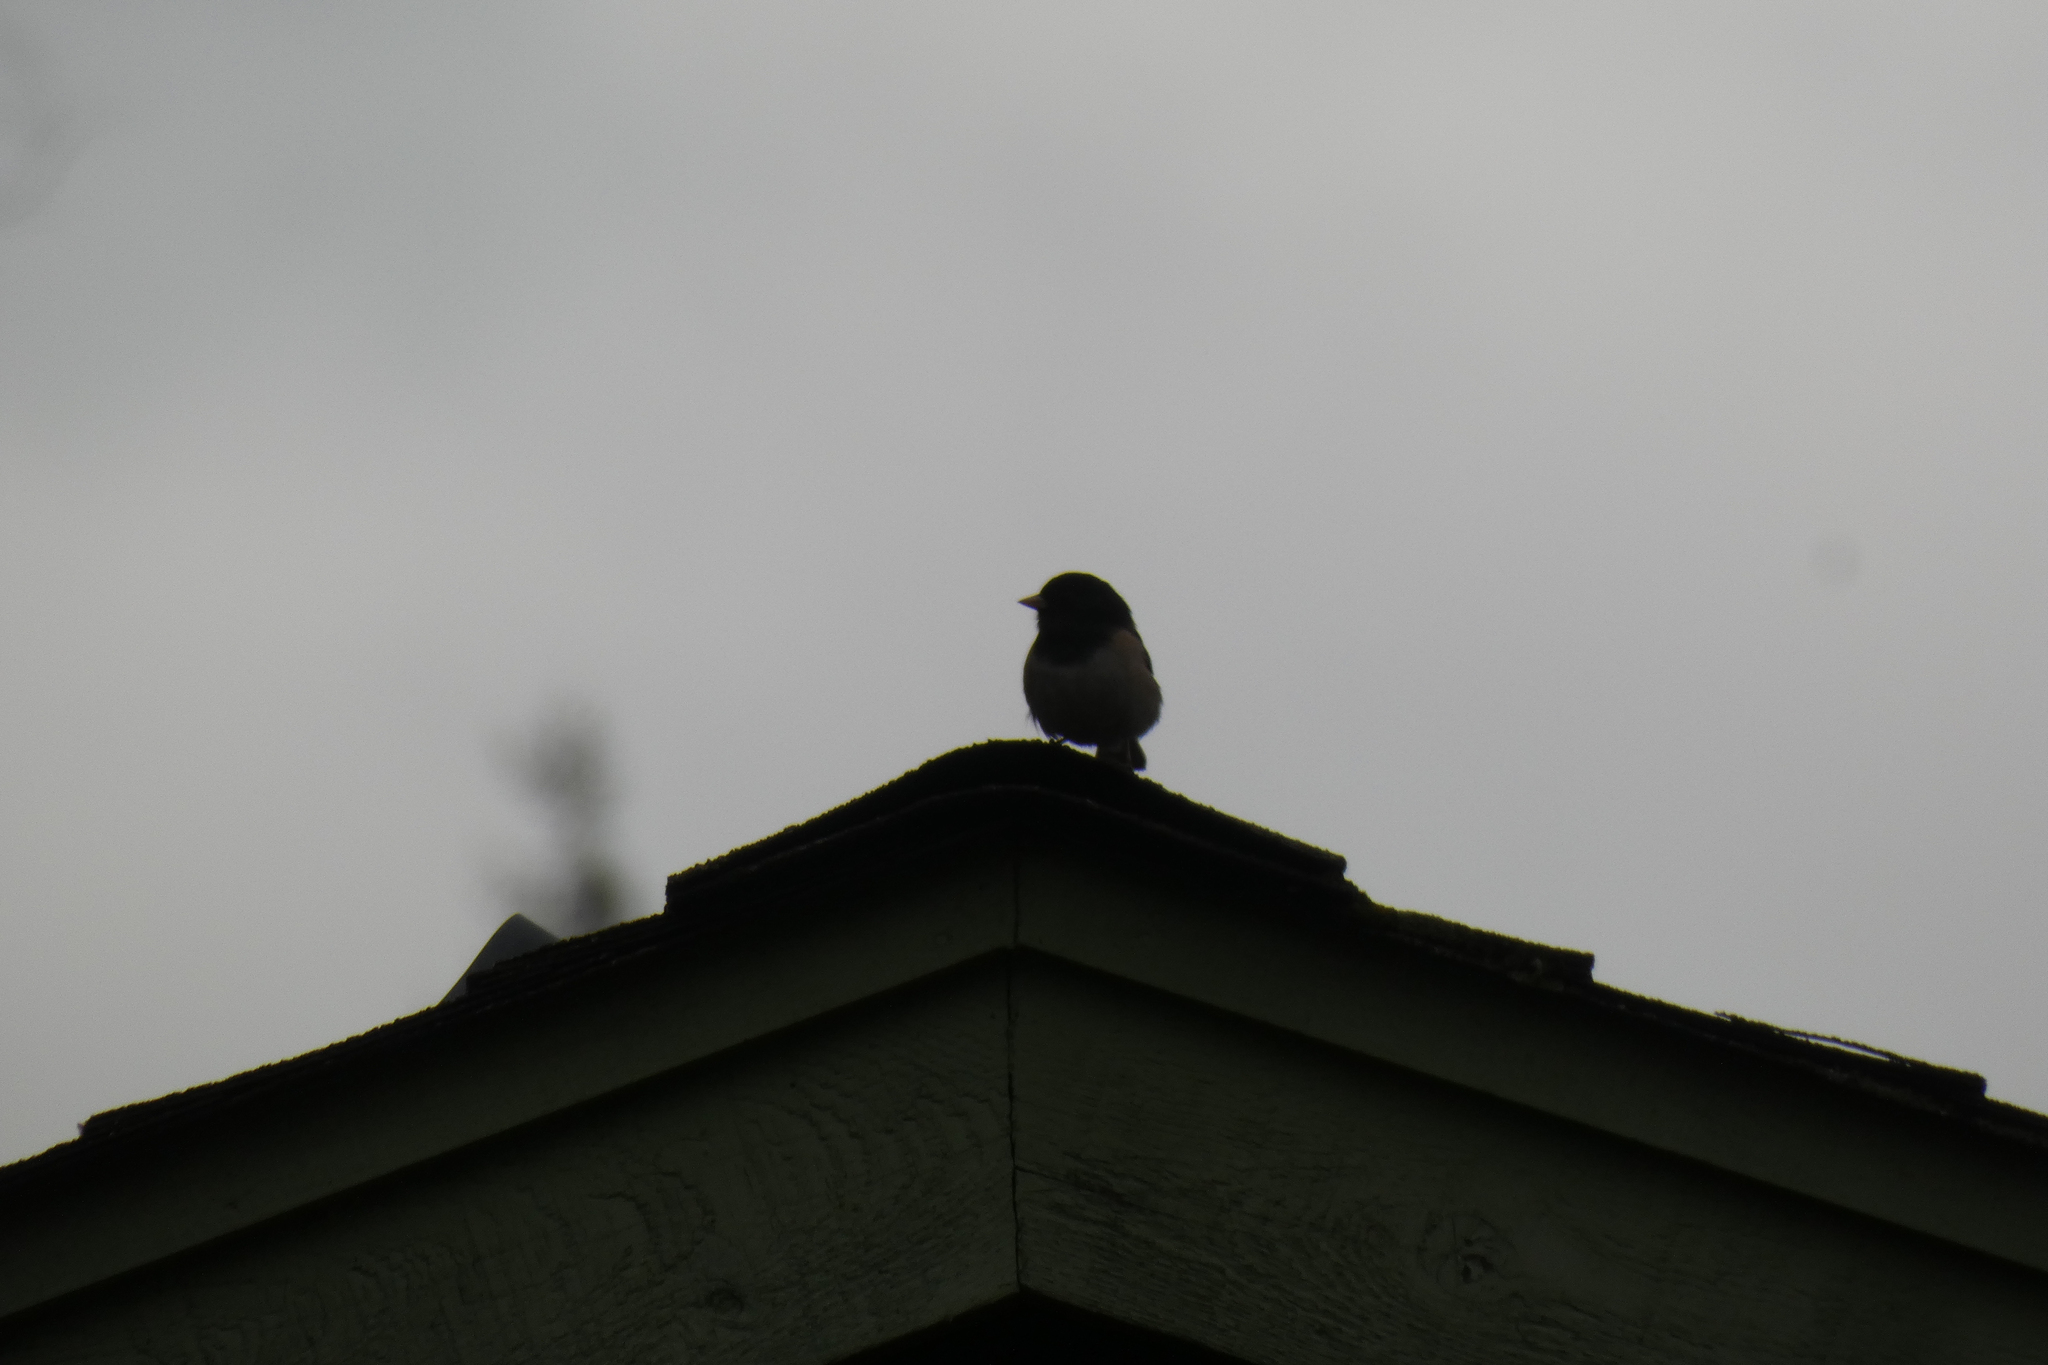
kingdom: Animalia
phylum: Chordata
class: Aves
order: Passeriformes
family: Passerellidae
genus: Junco
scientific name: Junco hyemalis
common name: Dark-eyed junco
